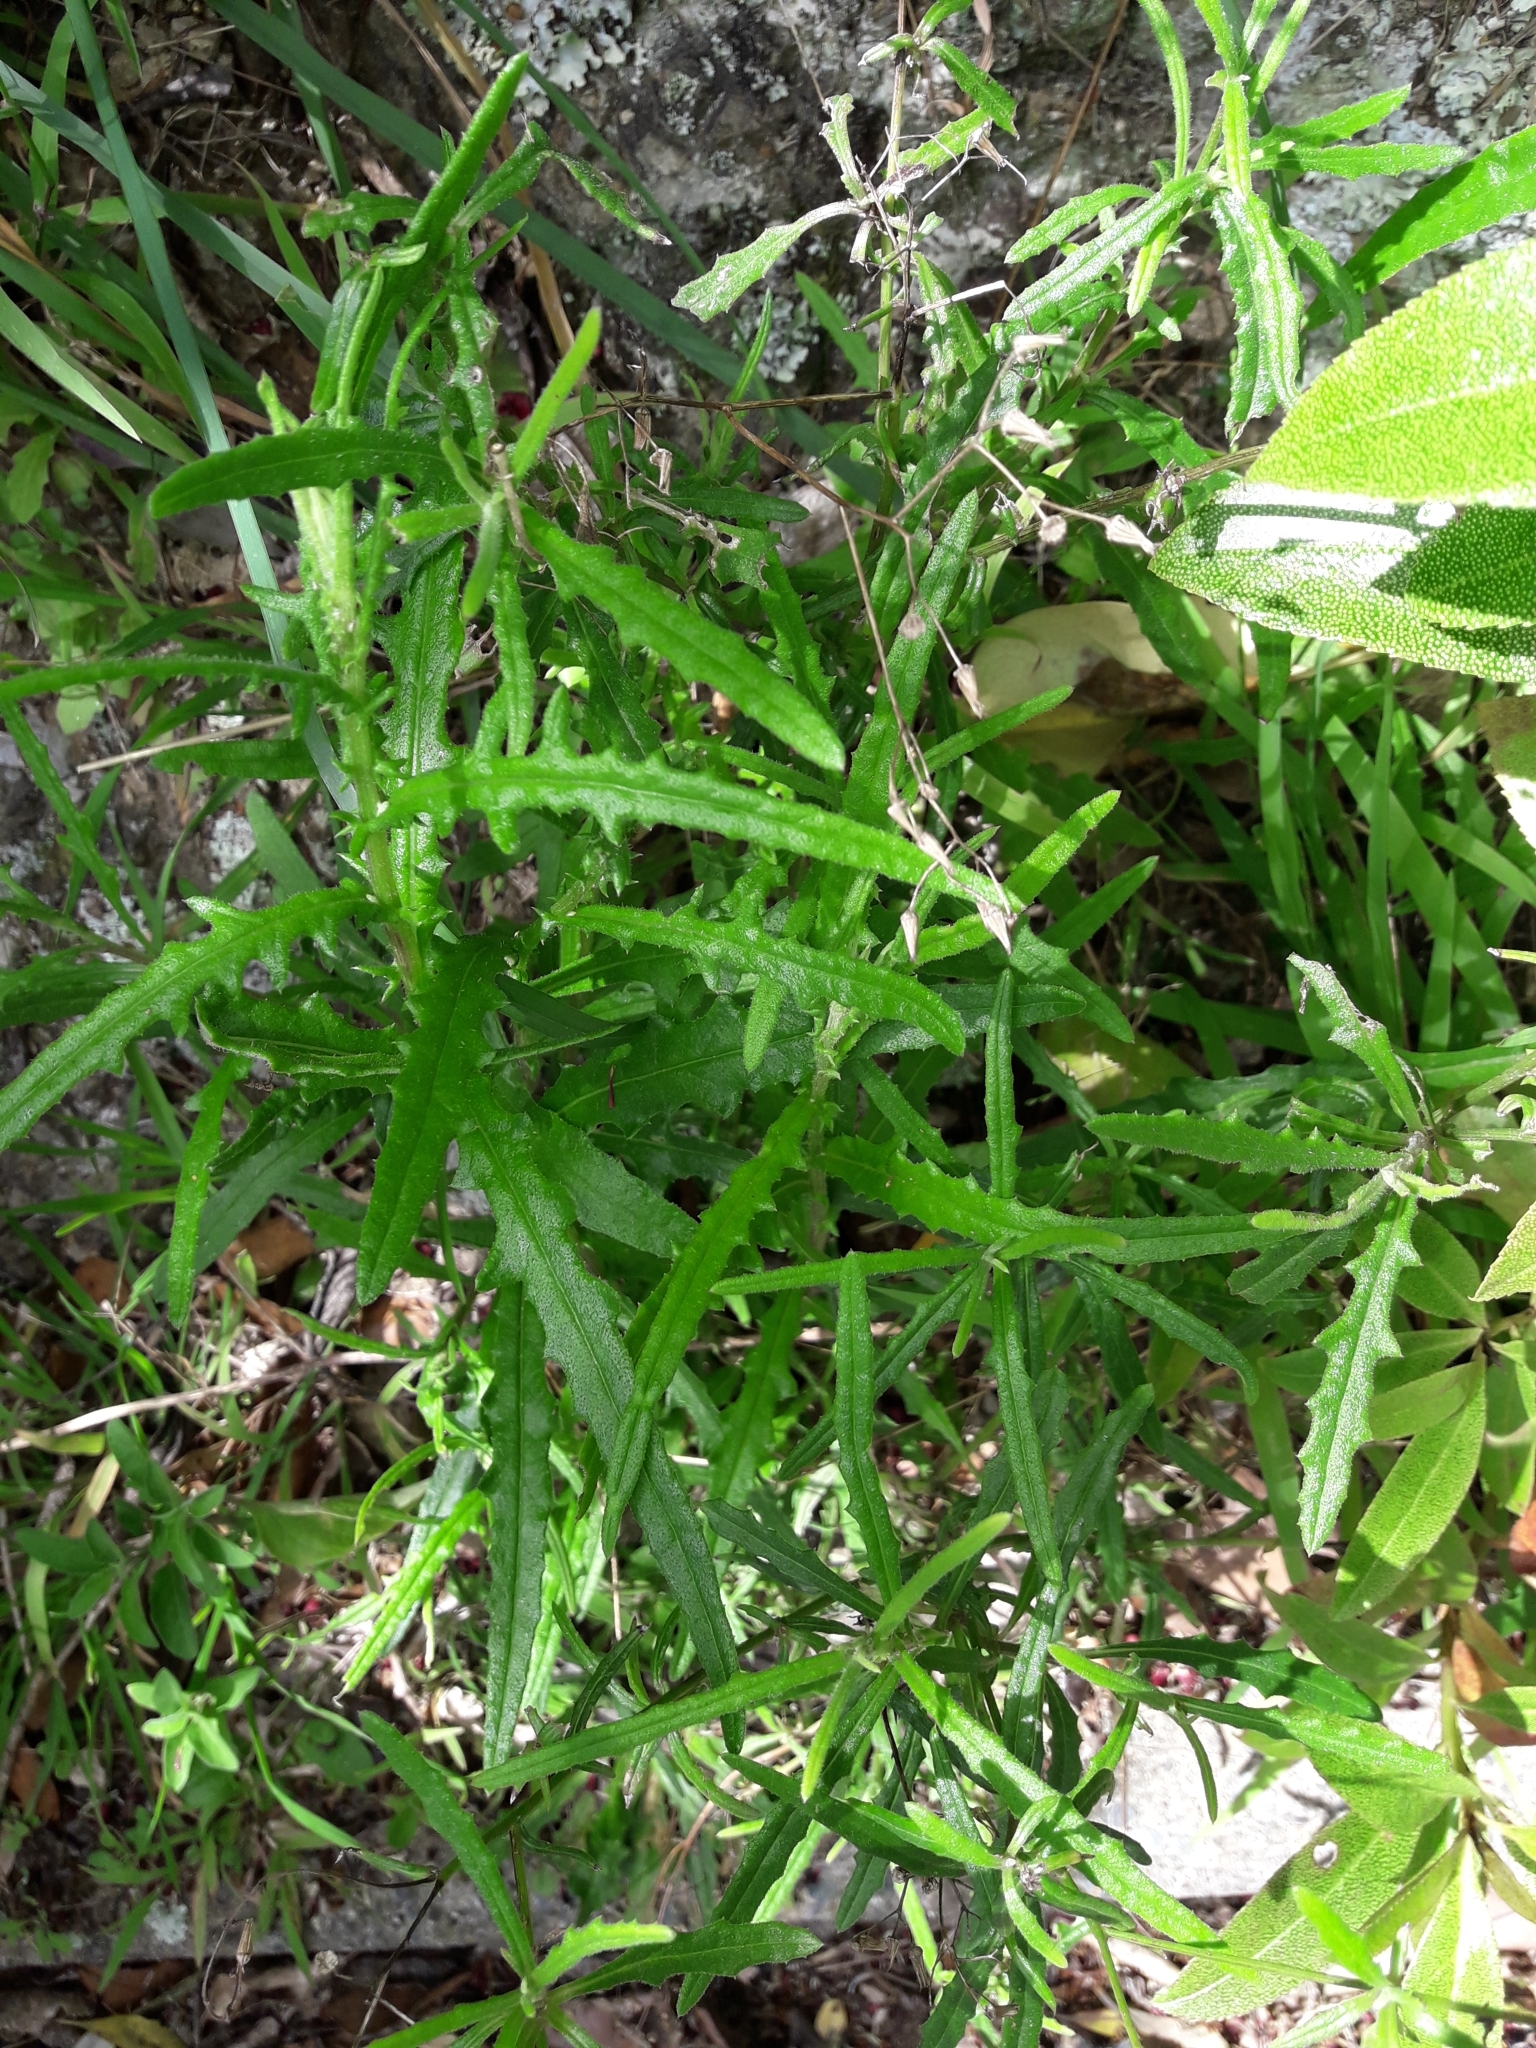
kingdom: Plantae
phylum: Tracheophyta
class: Magnoliopsida
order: Asterales
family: Asteraceae
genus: Senecio
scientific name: Senecio hispidulus
